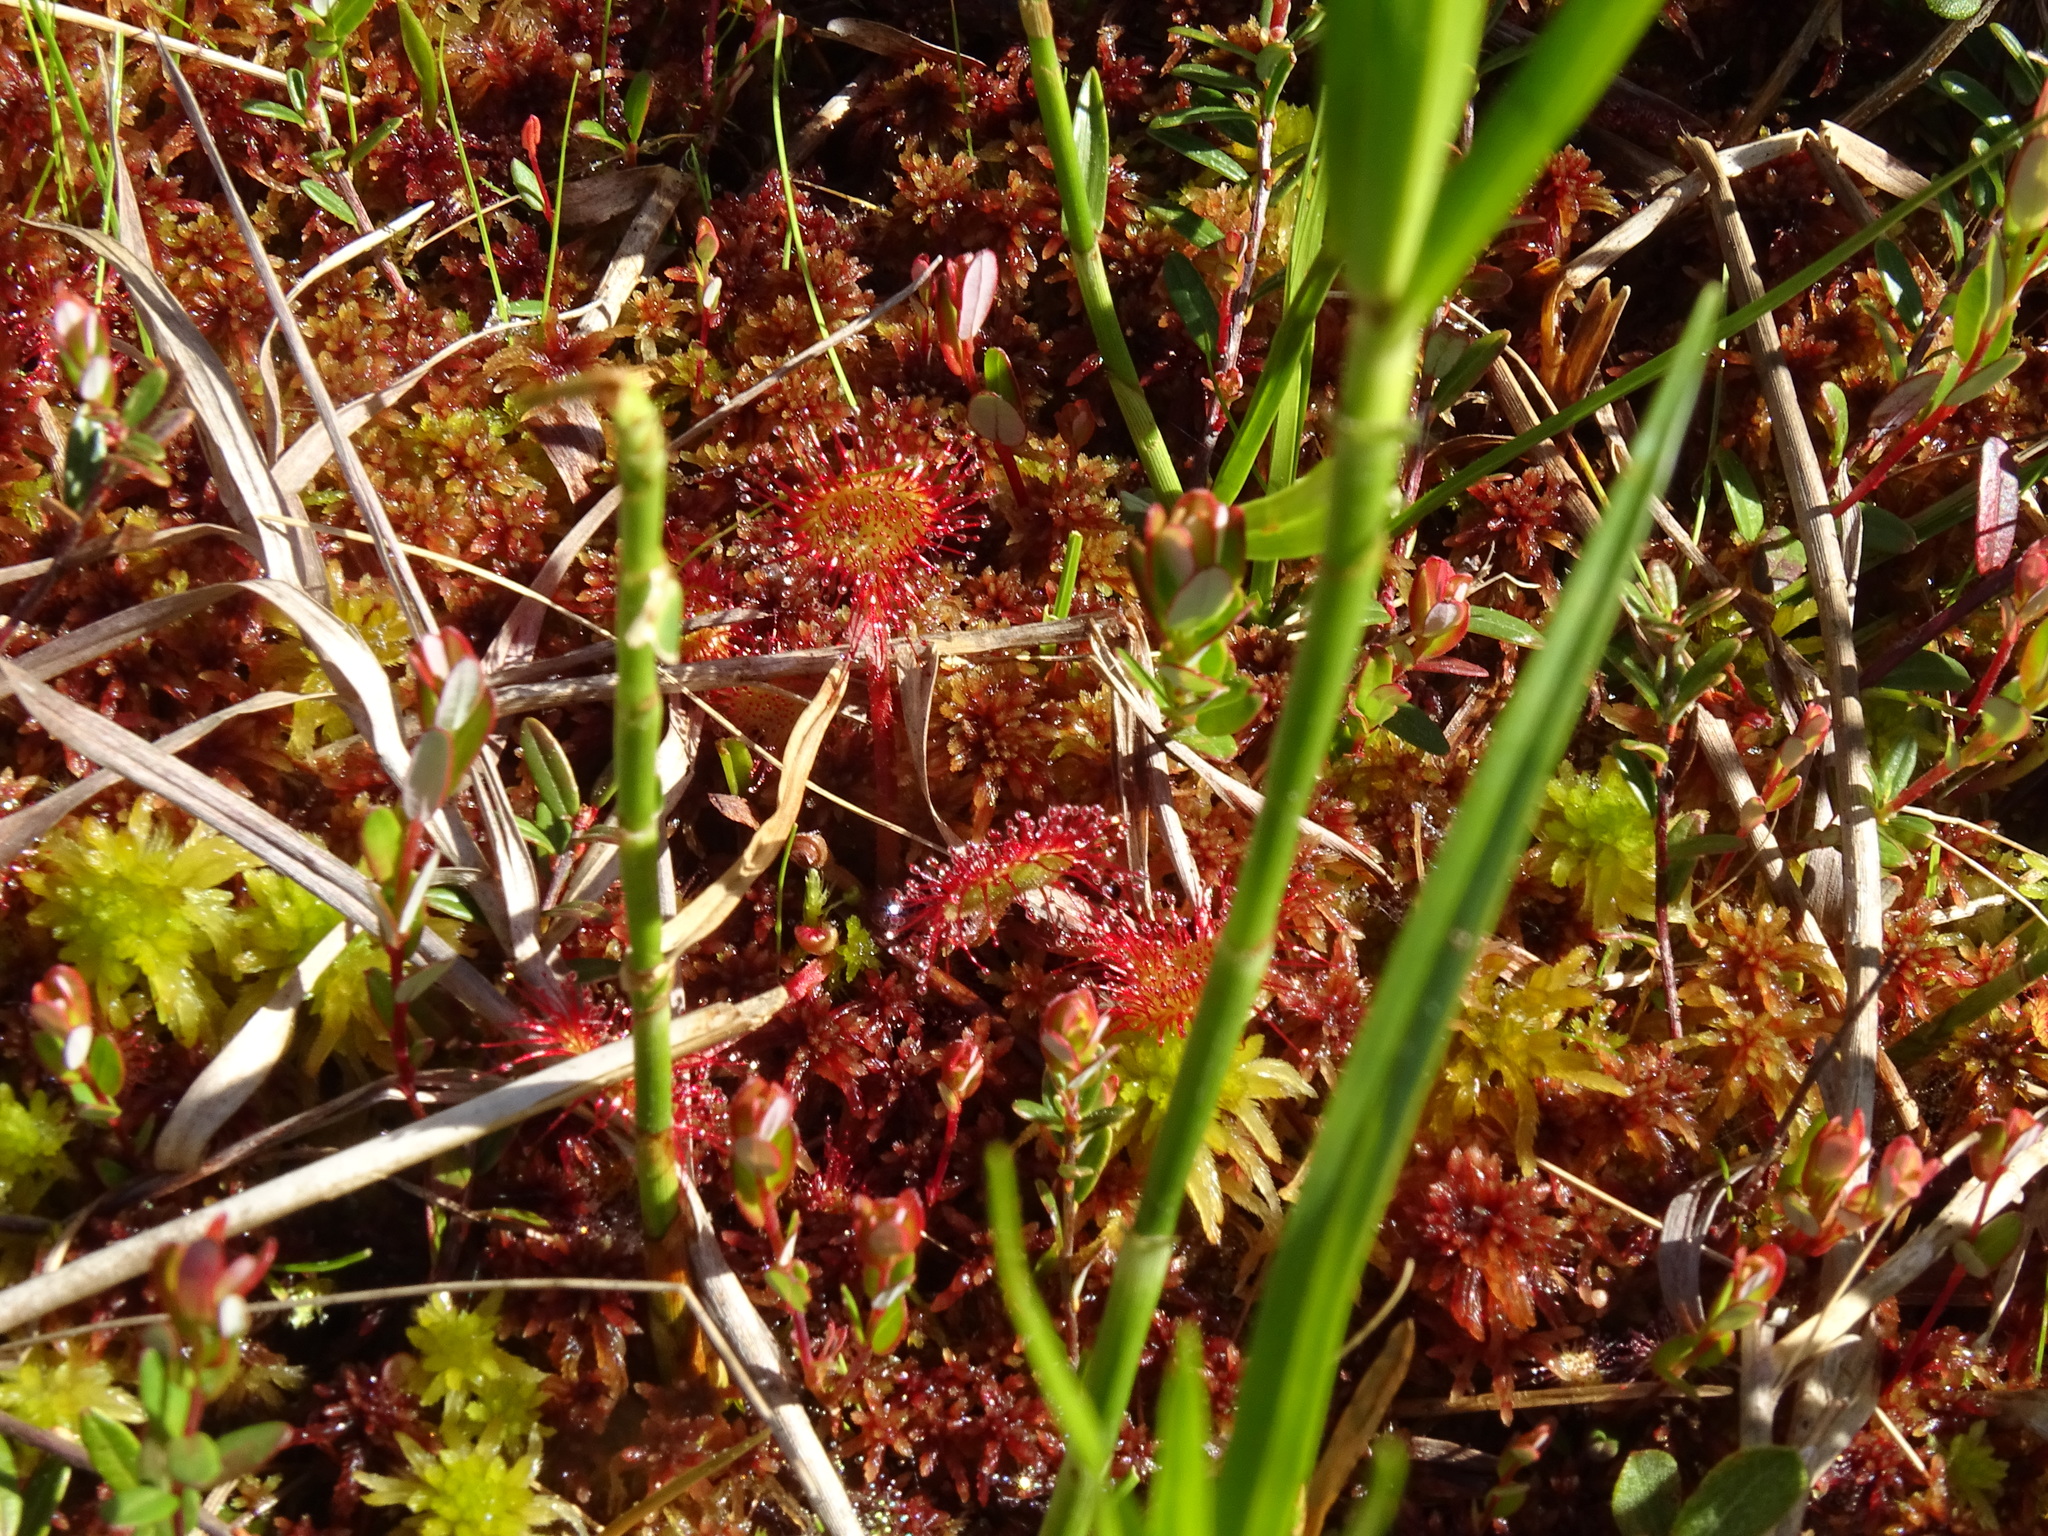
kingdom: Plantae
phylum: Tracheophyta
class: Magnoliopsida
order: Caryophyllales
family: Droseraceae
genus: Drosera
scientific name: Drosera rotundifolia
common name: Round-leaved sundew
